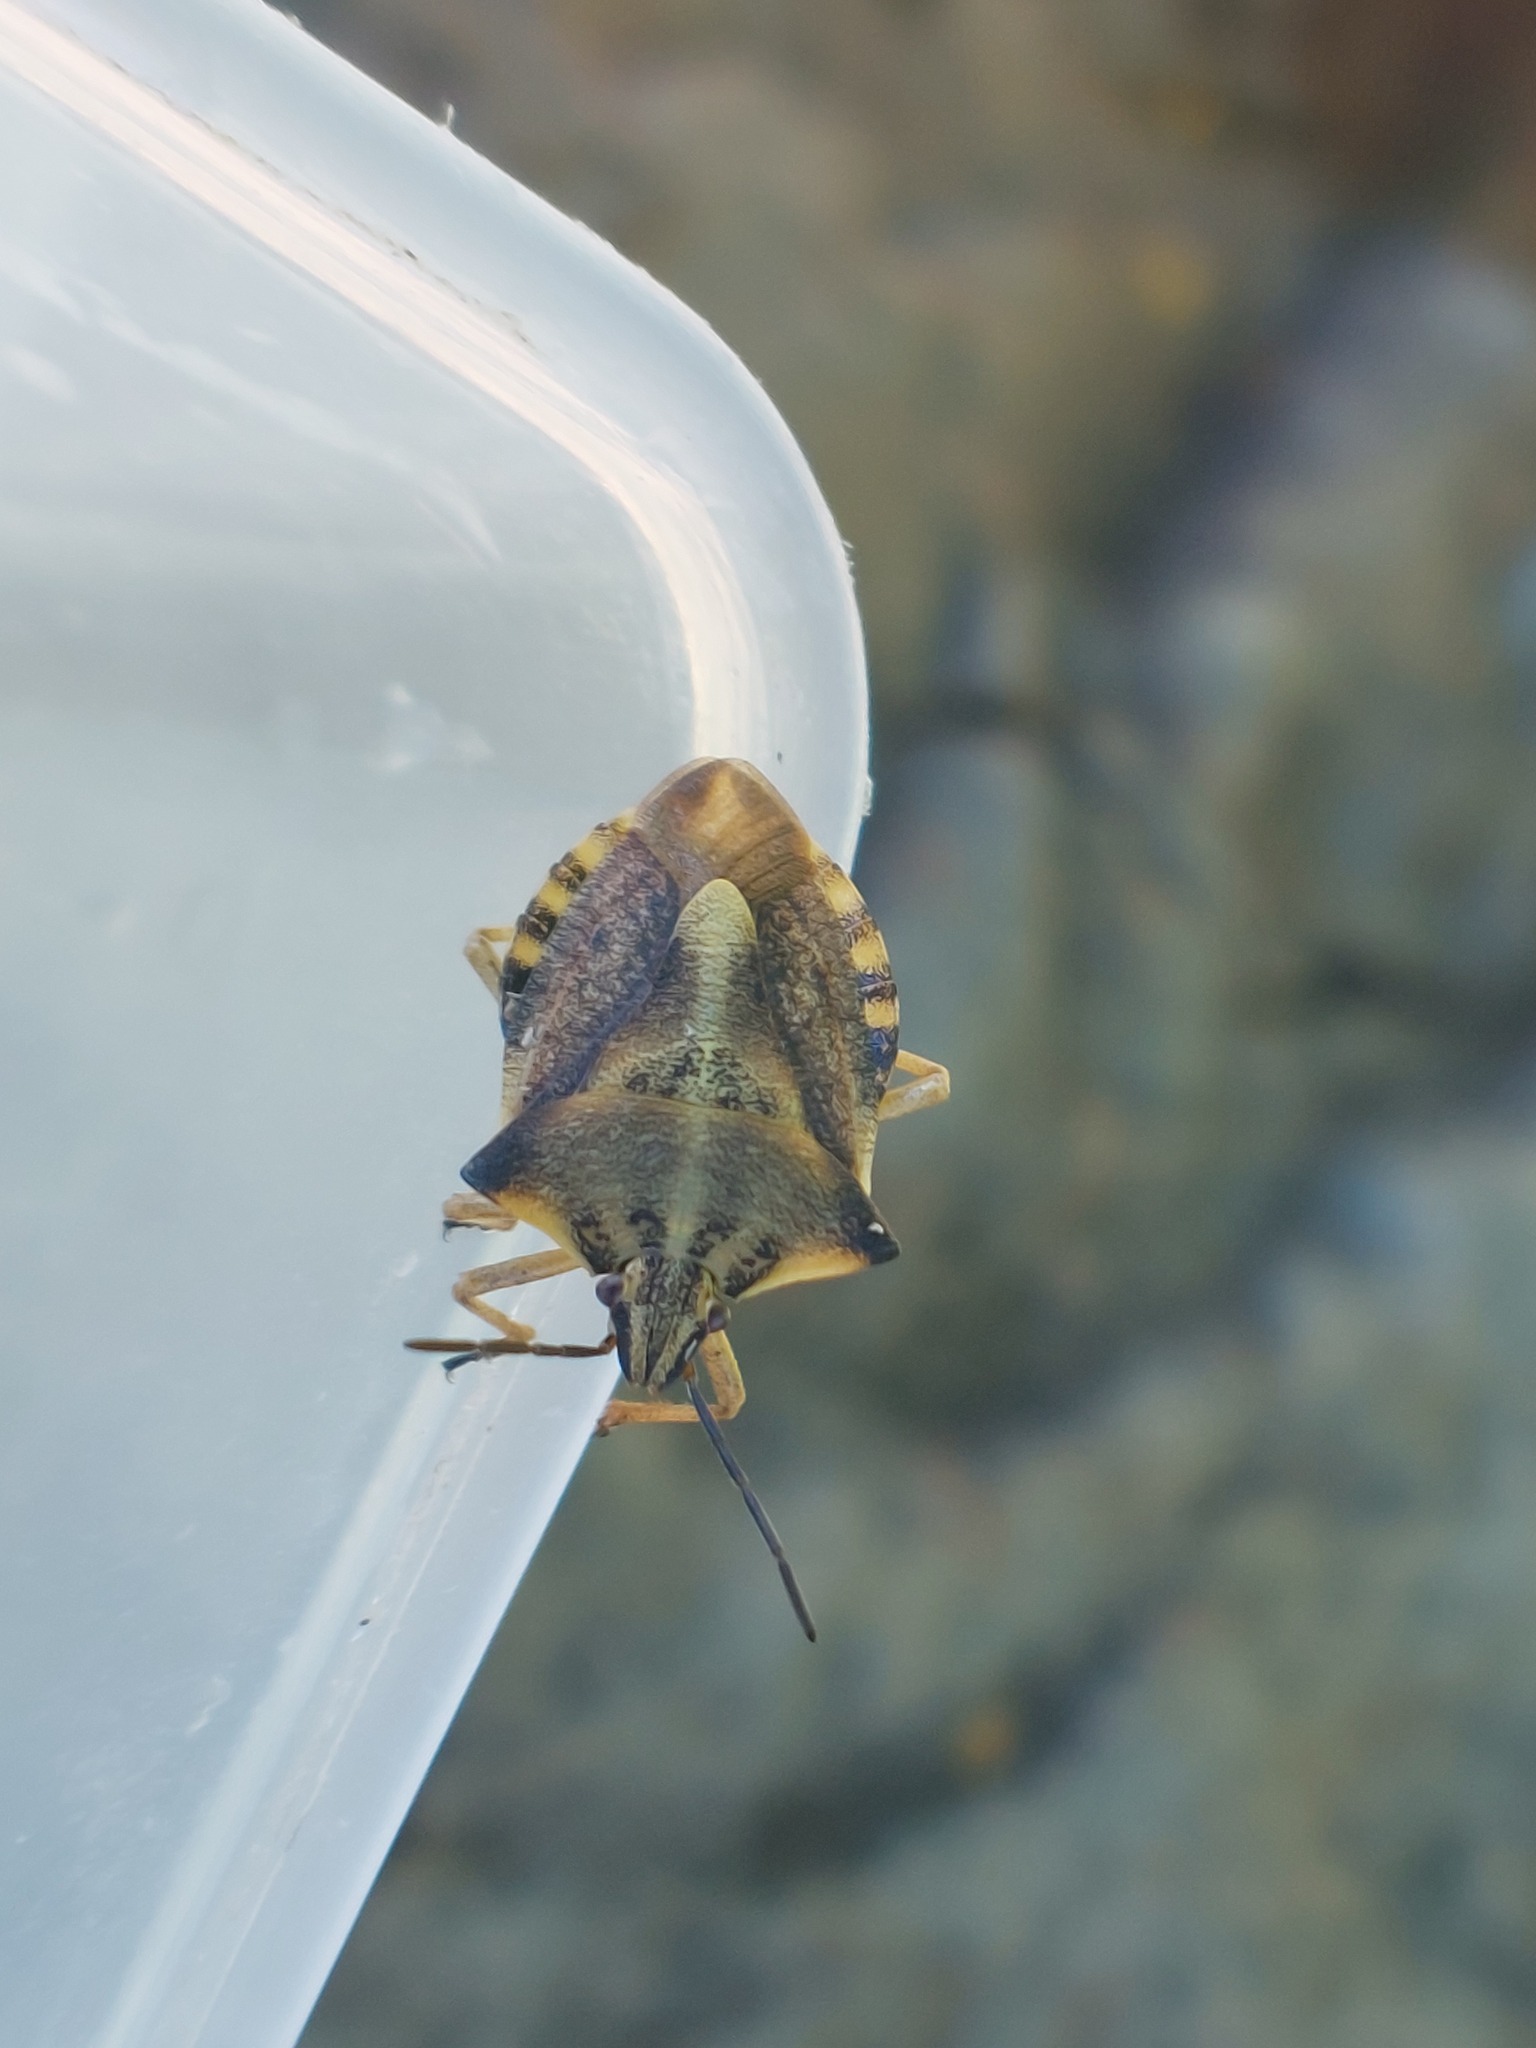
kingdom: Animalia
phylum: Arthropoda
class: Insecta
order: Hemiptera
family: Pentatomidae
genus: Carpocoris
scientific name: Carpocoris fuscispinus
